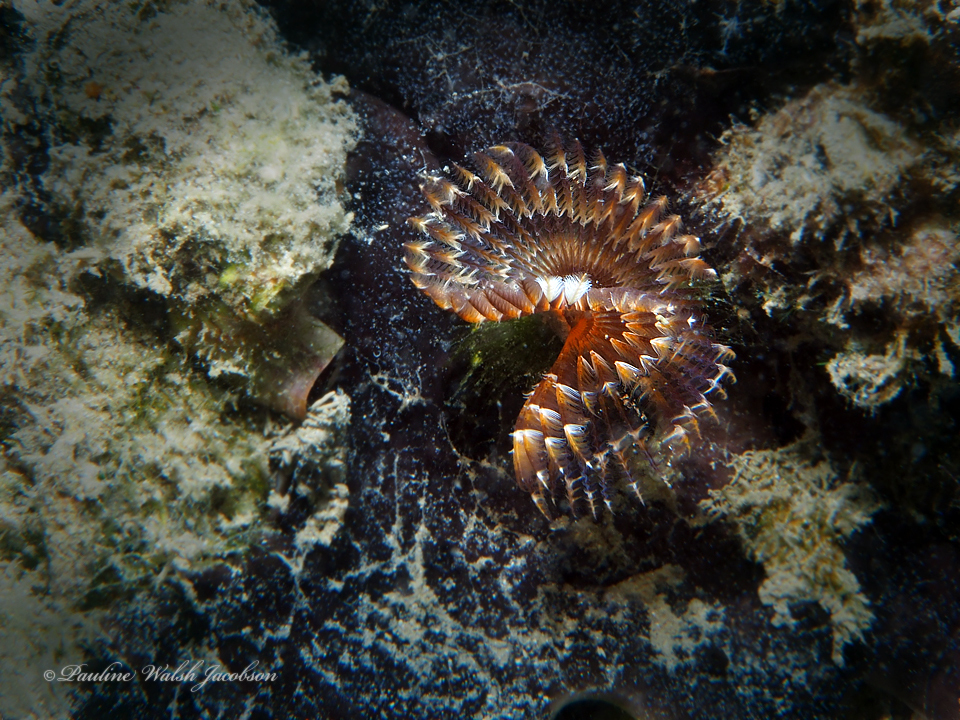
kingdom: Animalia
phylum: Annelida
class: Polychaeta
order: Sabellida
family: Sabellidae
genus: Branchiomma
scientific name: Branchiomma nigromaculatum
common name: Black-spotted feather duster
